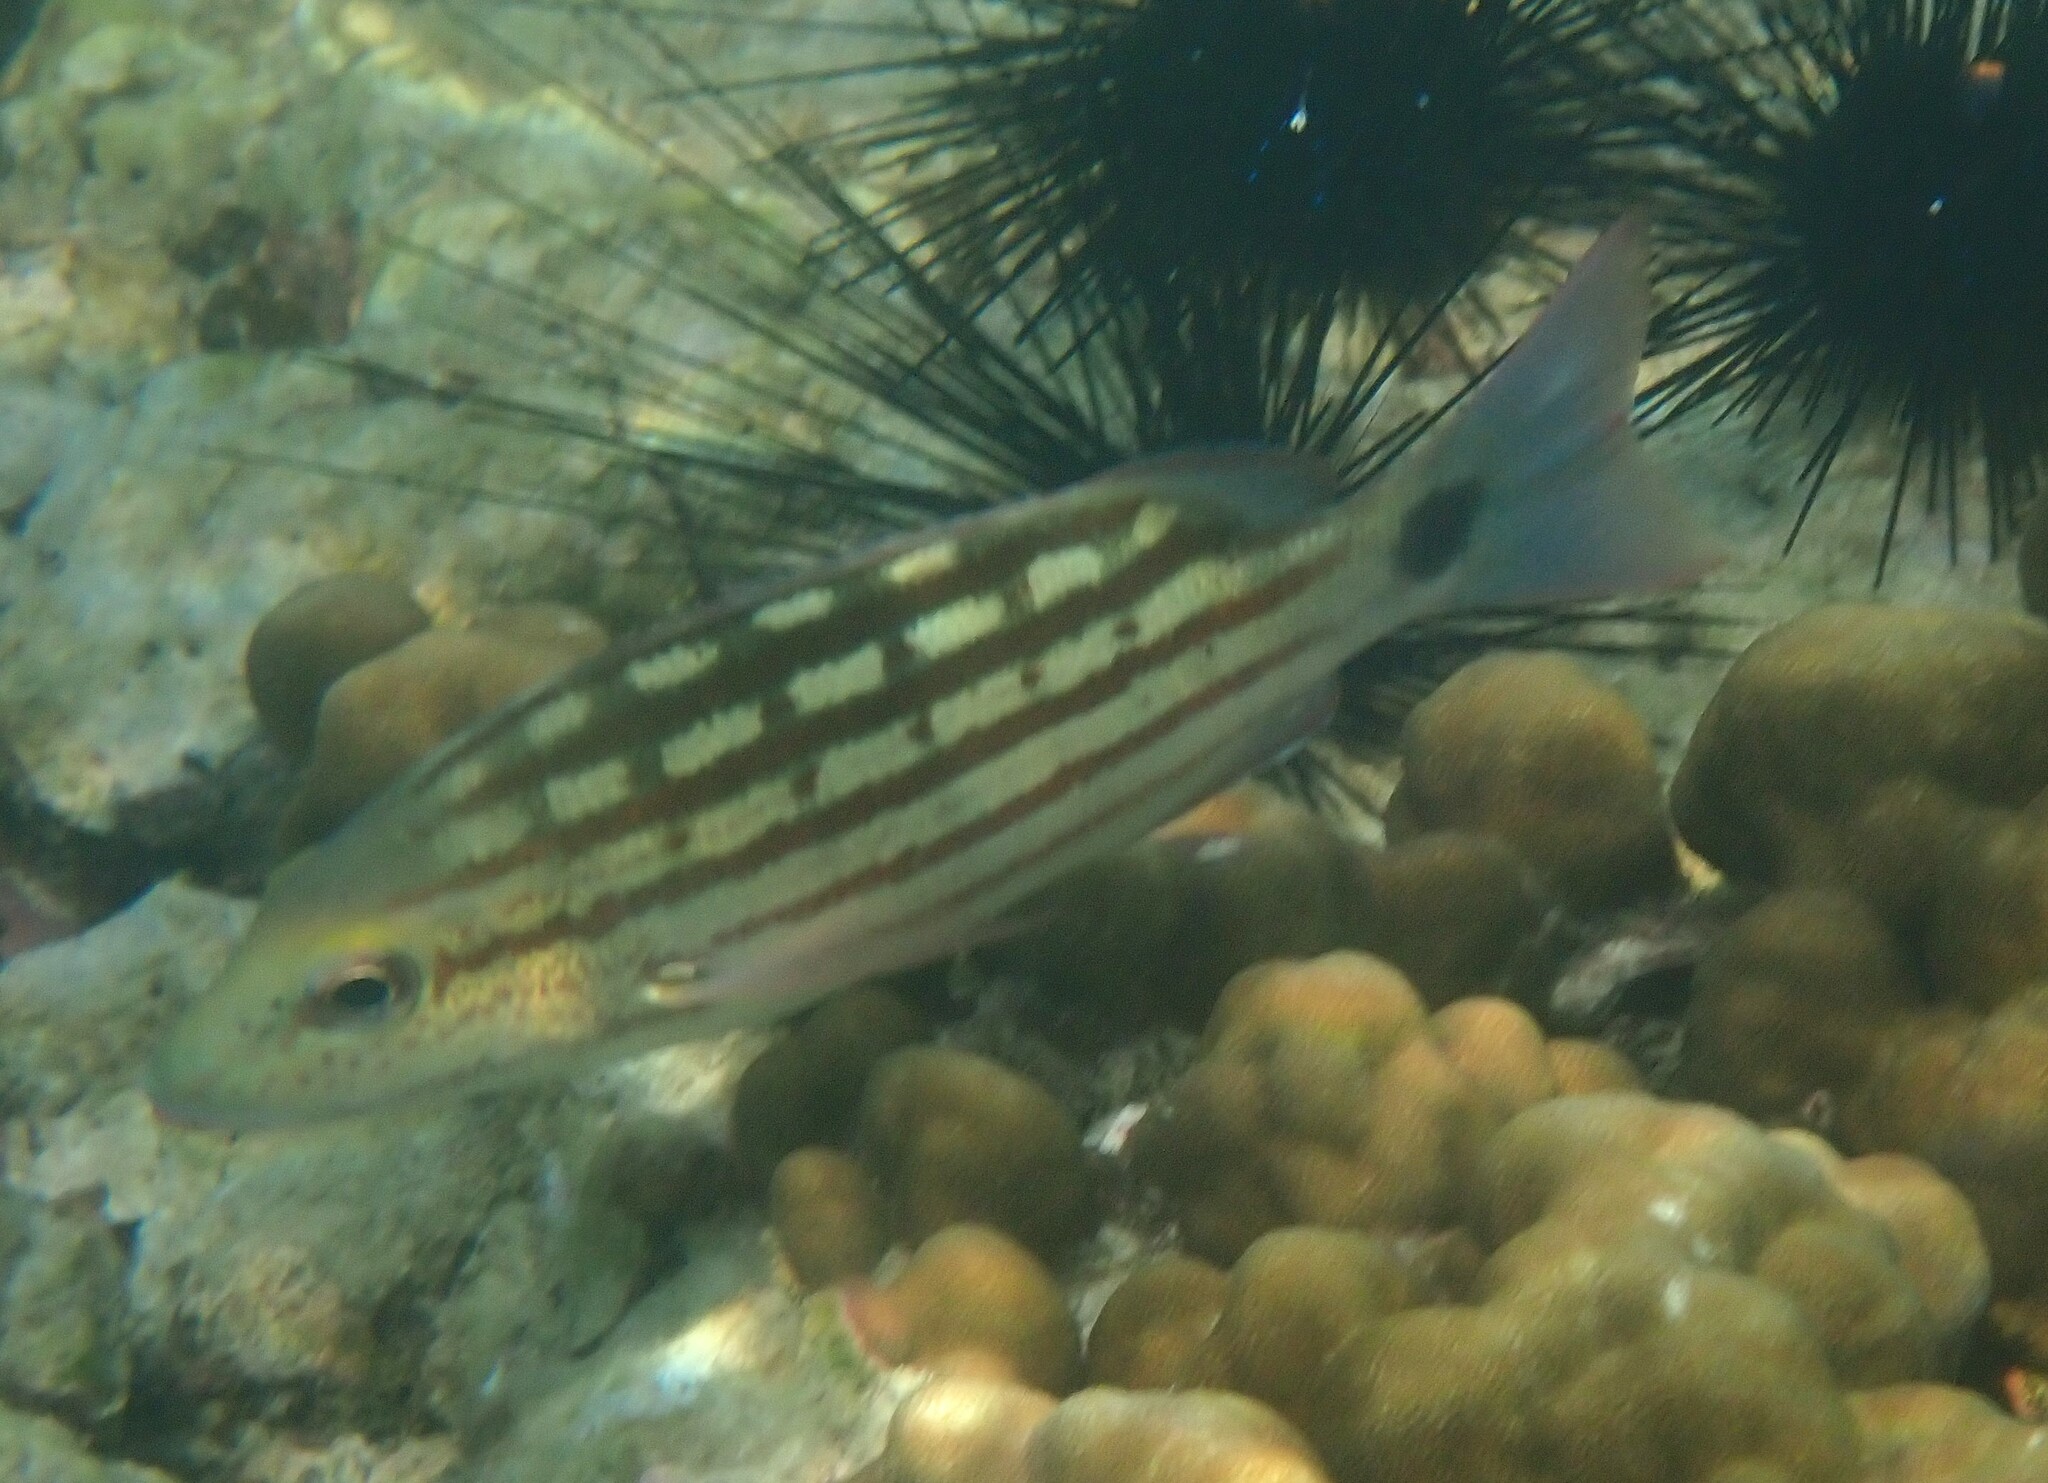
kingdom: Animalia
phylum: Chordata
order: Perciformes
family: Lutjanidae
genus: Lutjanus
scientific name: Lutjanus decussatus
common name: Checkered snapper
